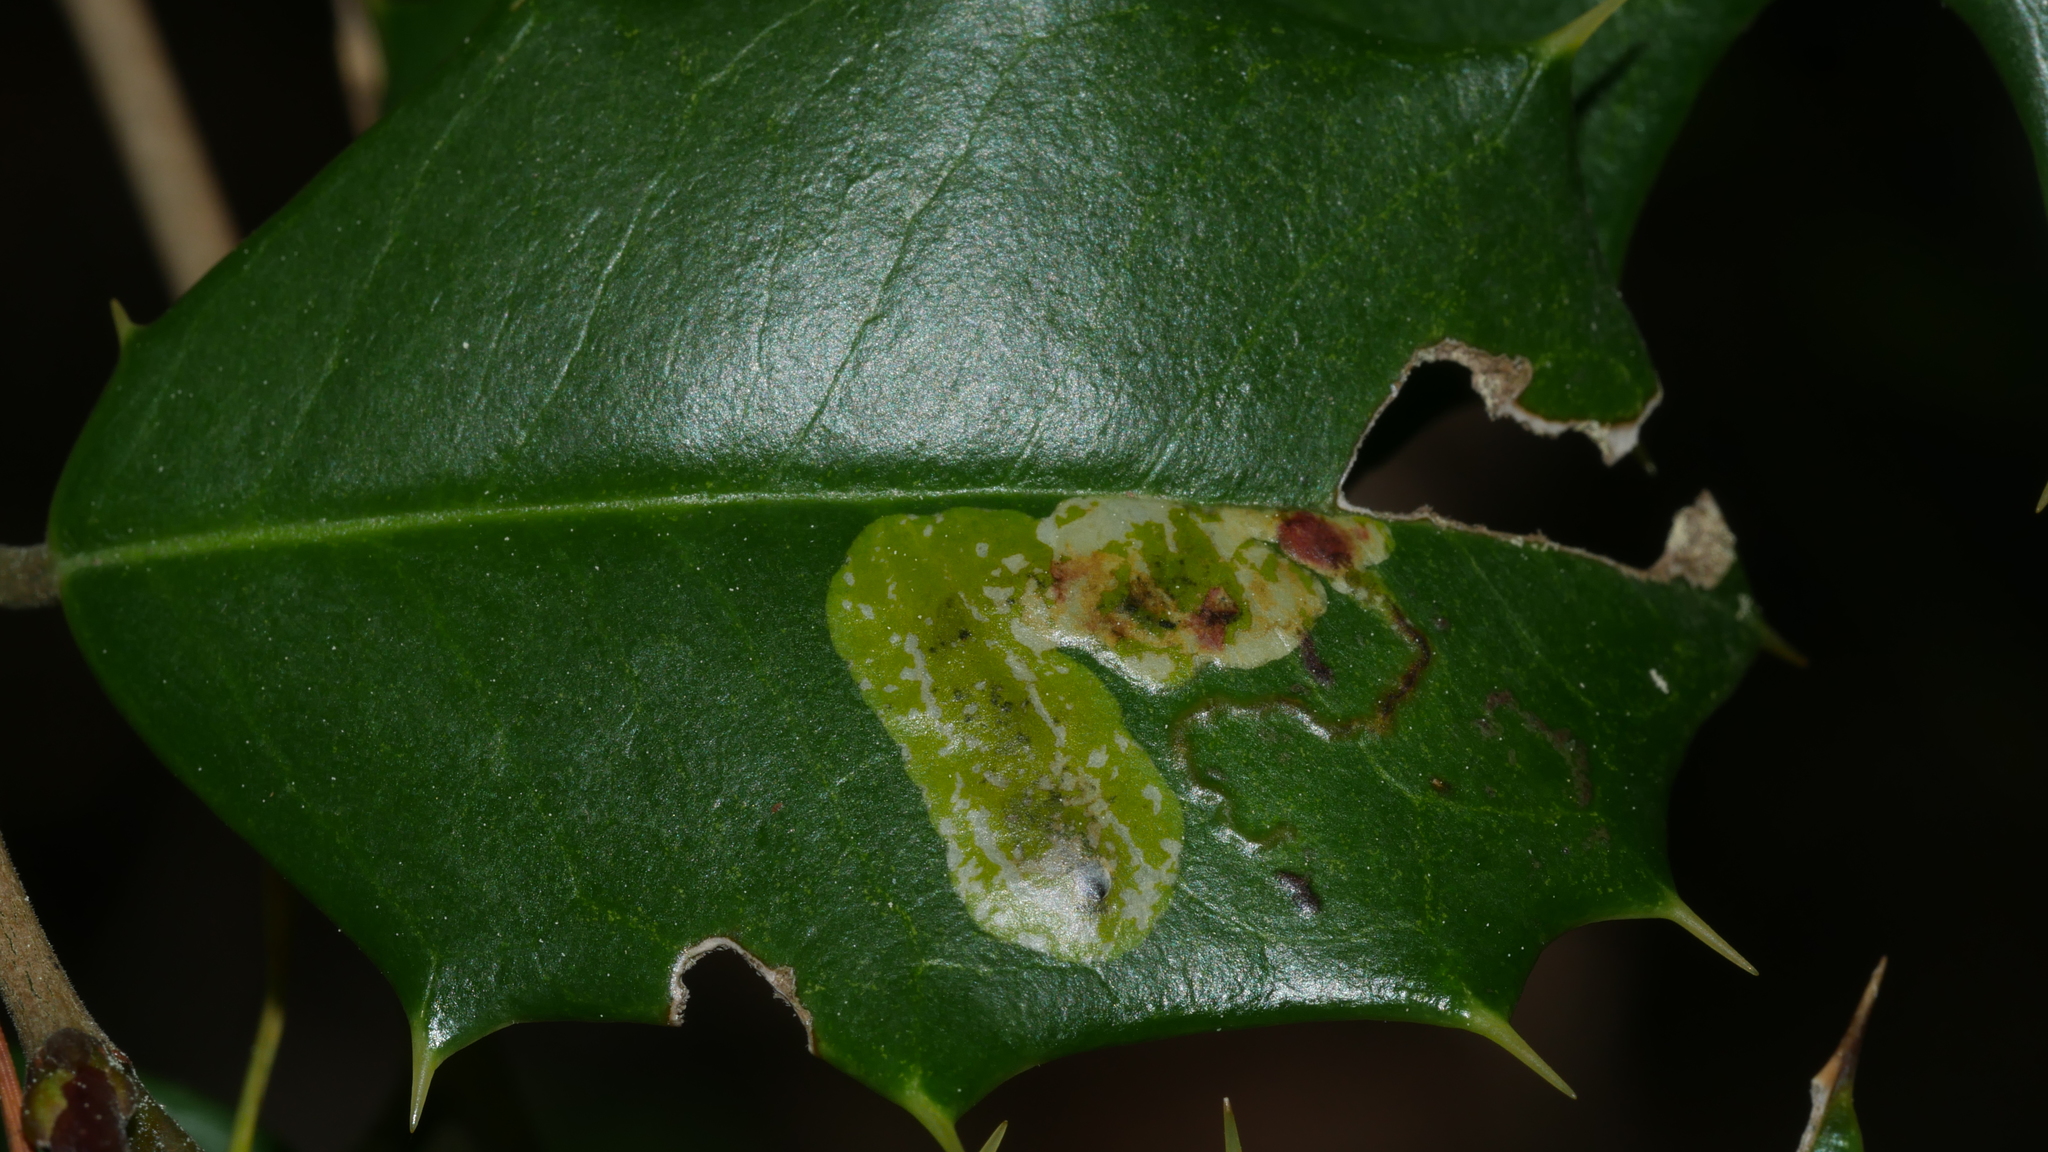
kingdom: Animalia
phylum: Arthropoda
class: Insecta
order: Diptera
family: Agromyzidae
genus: Phytomyza
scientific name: Phytomyza ilicicola
